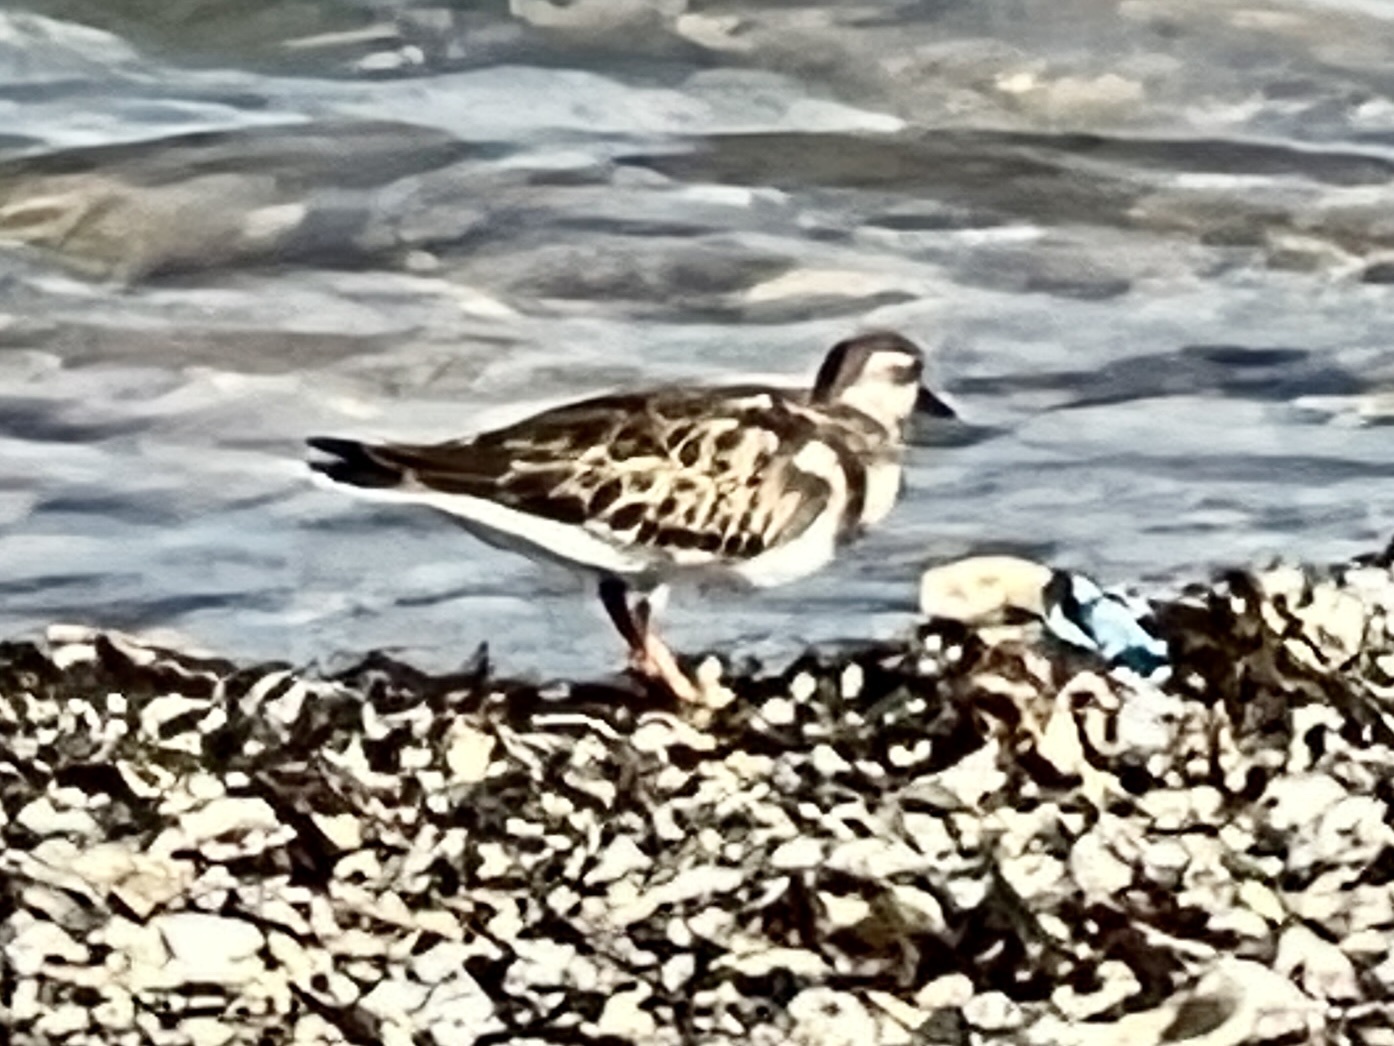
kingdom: Animalia
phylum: Chordata
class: Aves
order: Charadriiformes
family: Scolopacidae
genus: Arenaria
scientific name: Arenaria interpres
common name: Ruddy turnstone
